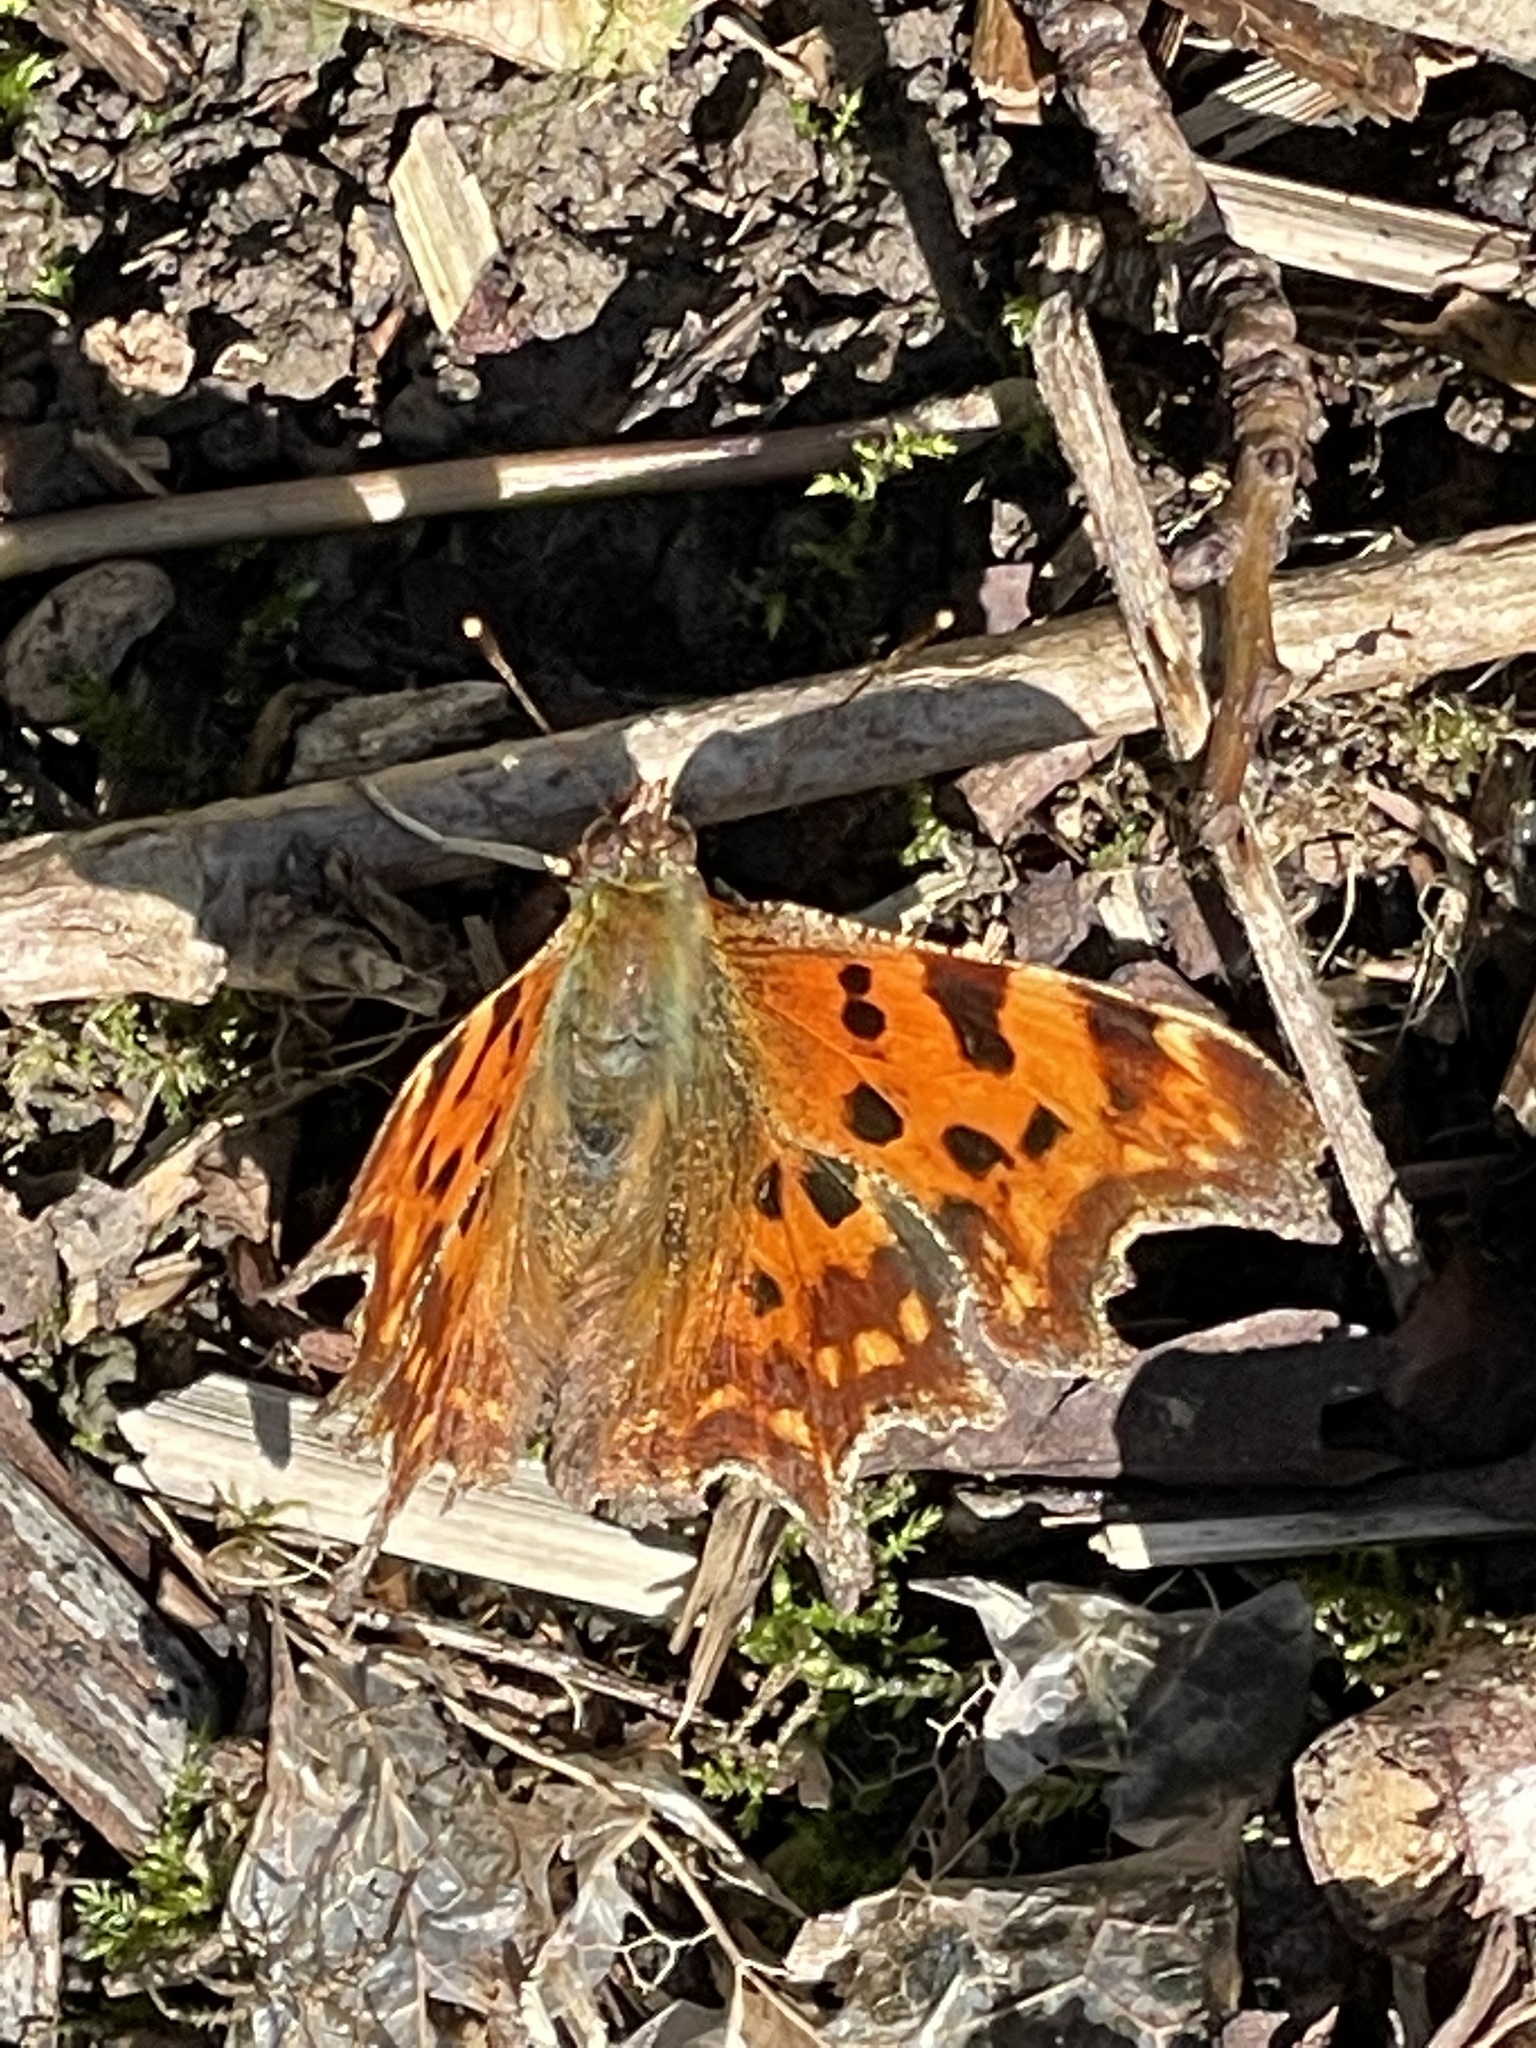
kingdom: Animalia
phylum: Arthropoda
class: Insecta
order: Lepidoptera
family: Nymphalidae
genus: Polygonia
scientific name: Polygonia c-album
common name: Comma
